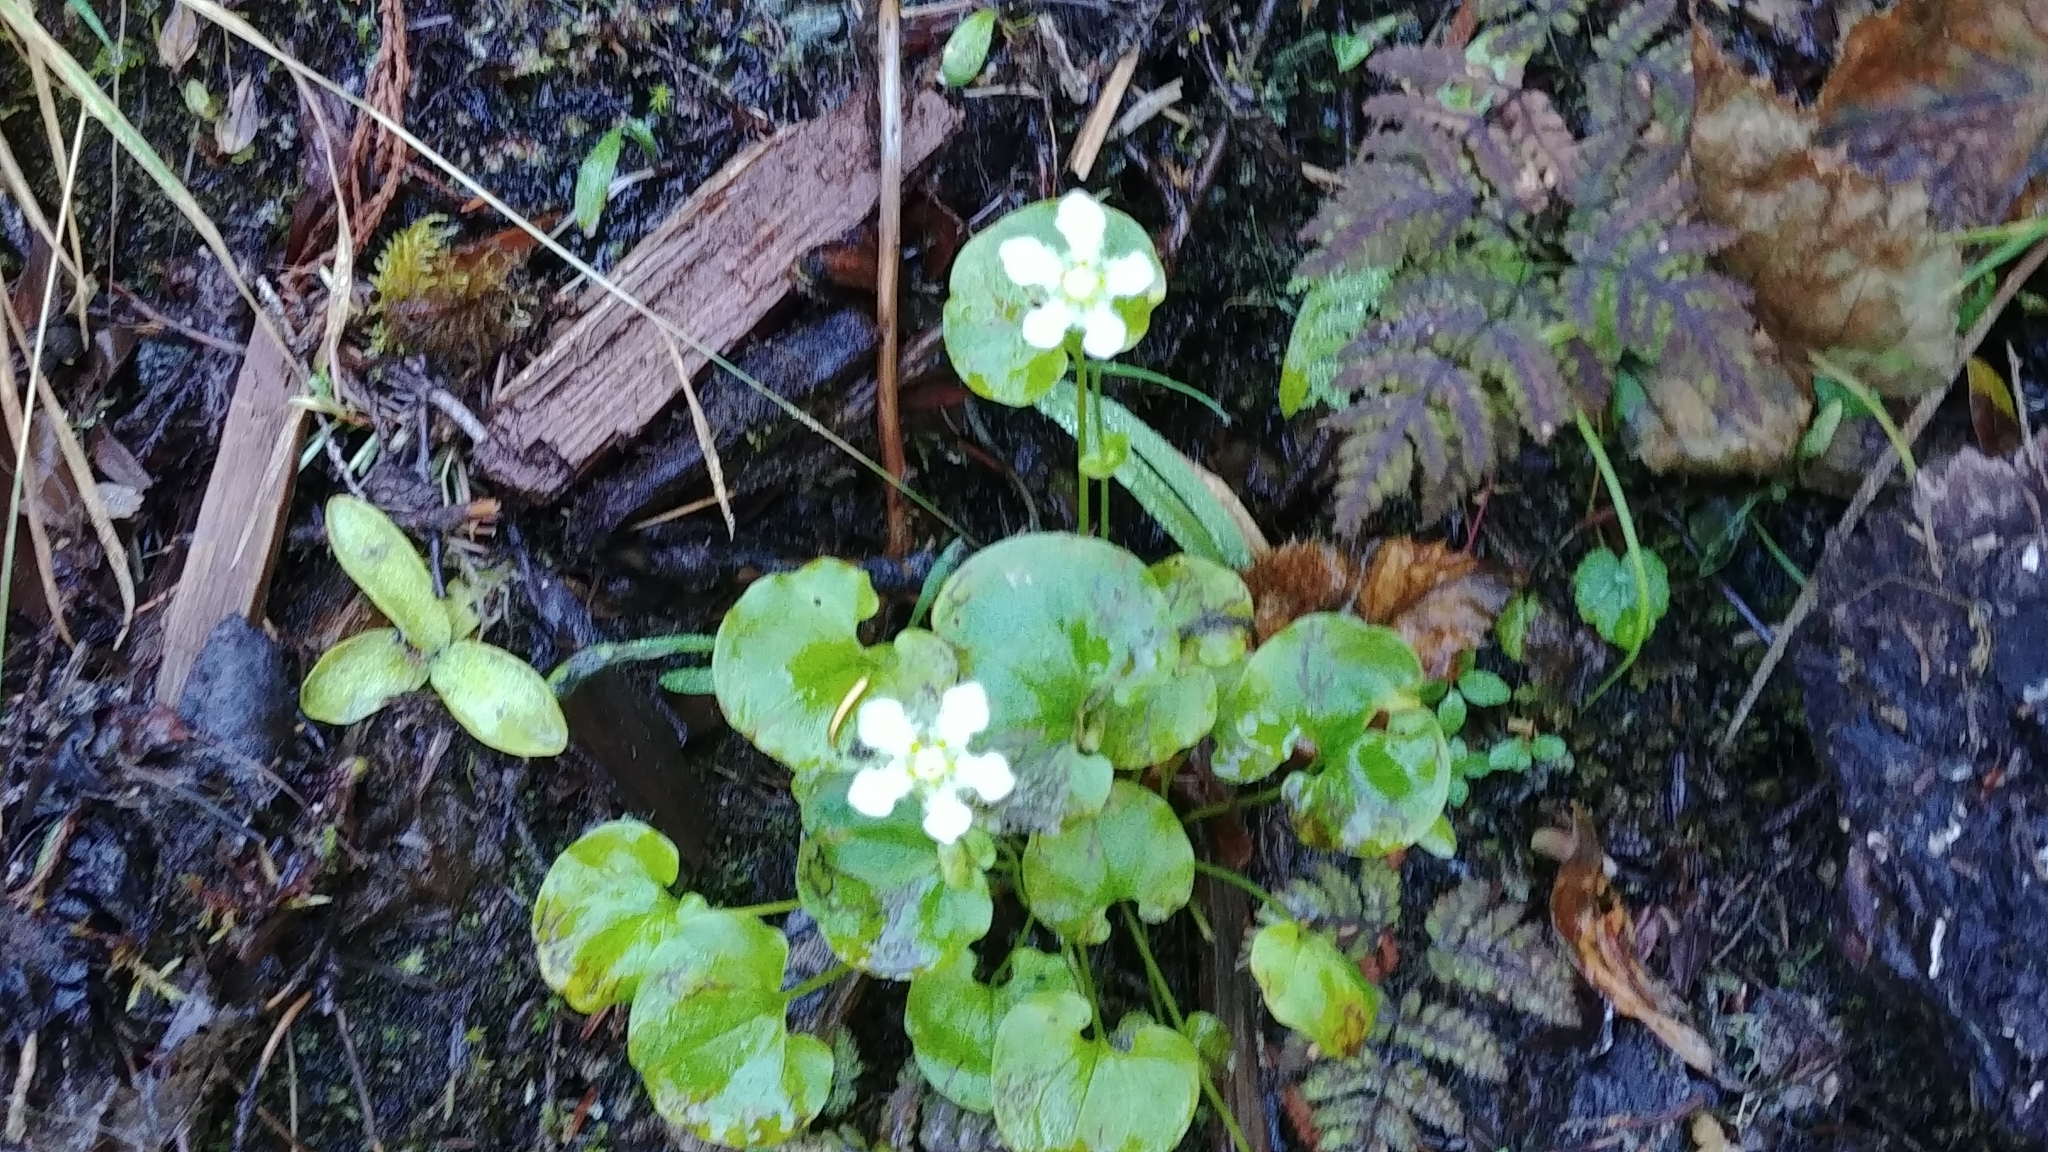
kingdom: Plantae
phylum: Tracheophyta
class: Magnoliopsida
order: Celastrales
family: Parnassiaceae
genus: Parnassia
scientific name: Parnassia fimbriata
